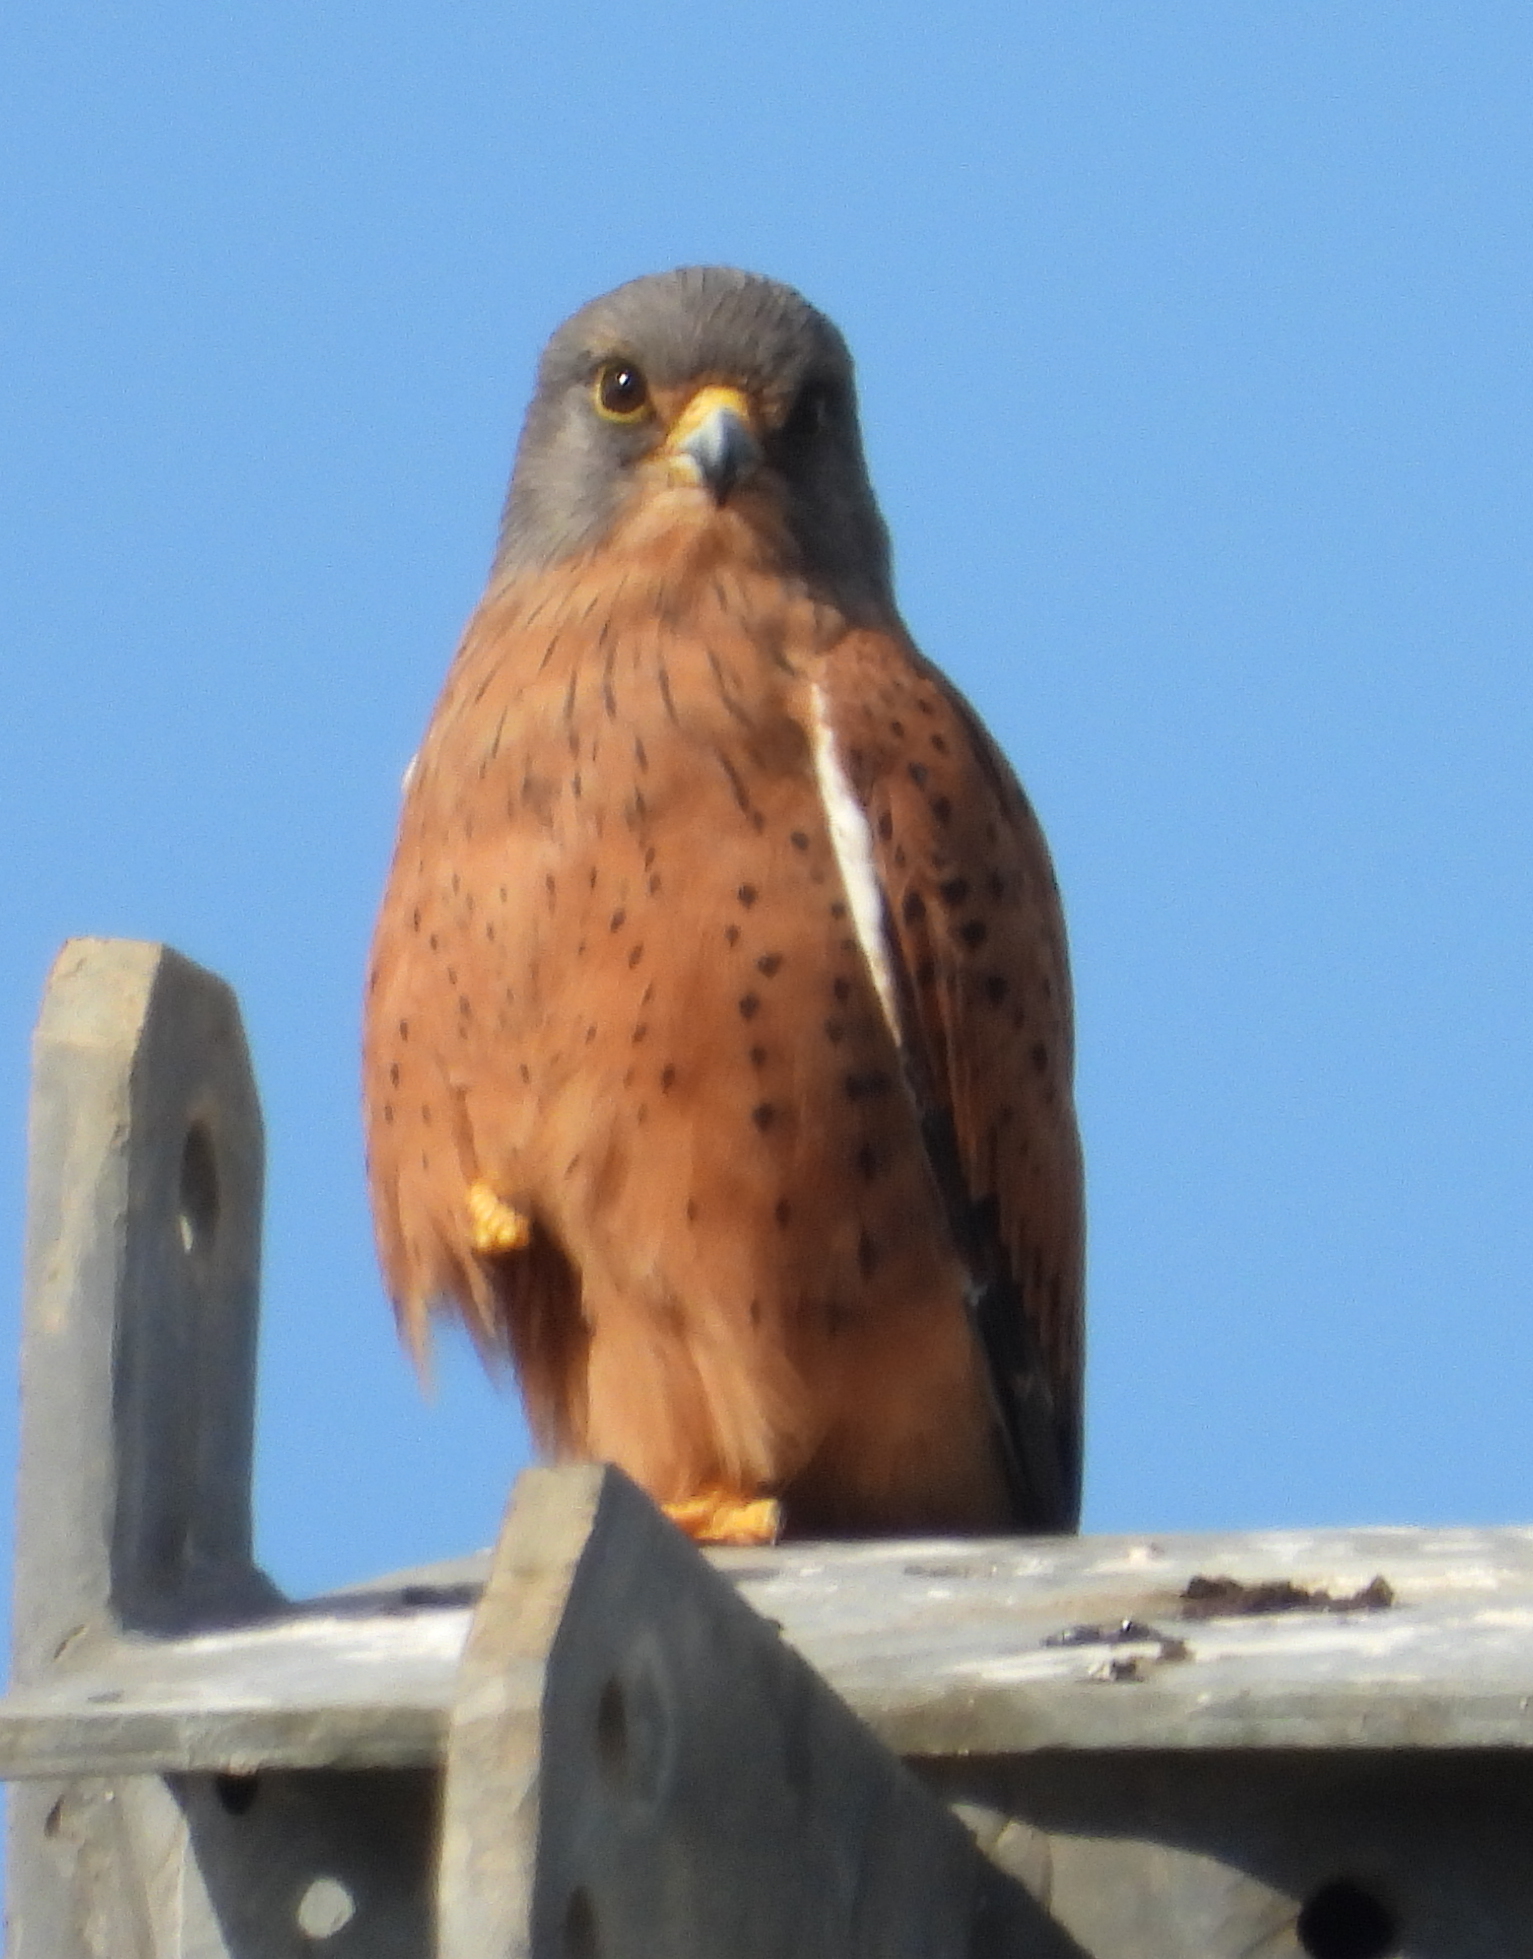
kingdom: Animalia
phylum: Chordata
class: Aves
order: Falconiformes
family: Falconidae
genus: Falco
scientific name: Falco rupicolus
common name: Rock kestrel
